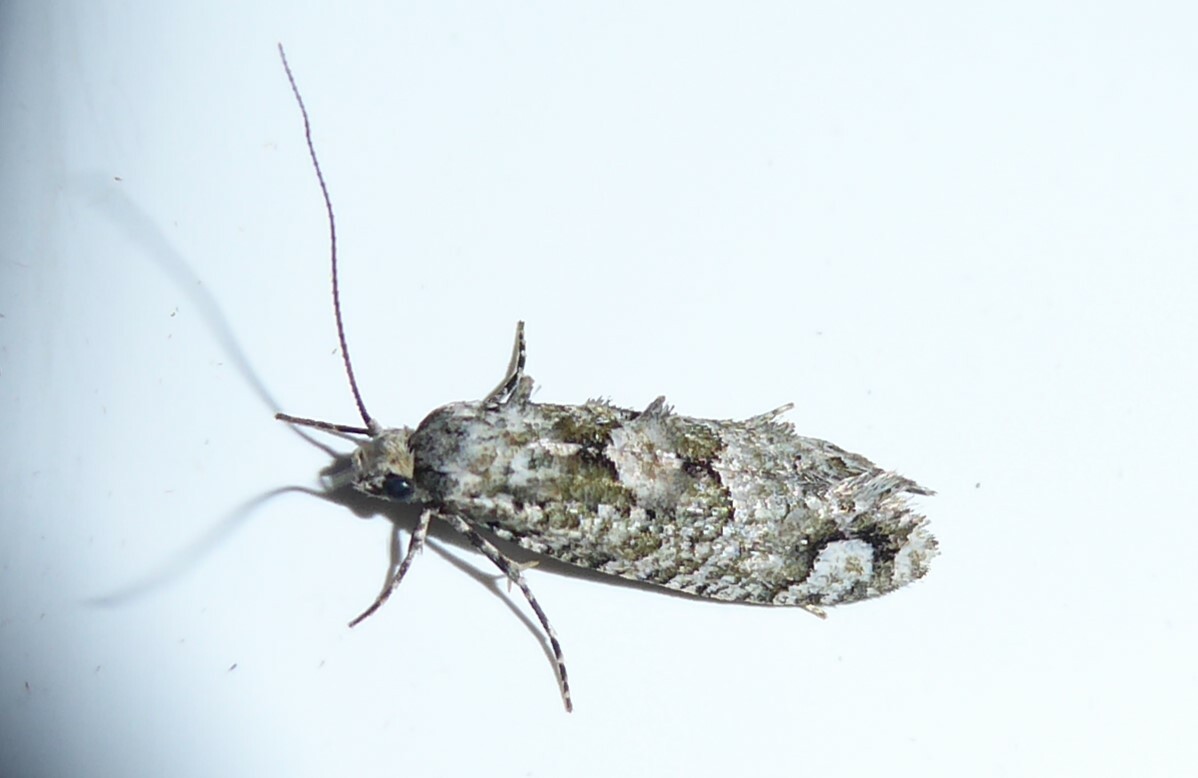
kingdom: Animalia
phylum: Arthropoda
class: Insecta
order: Lepidoptera
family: Tineidae
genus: Lysiphragma
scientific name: Lysiphragma howesii
